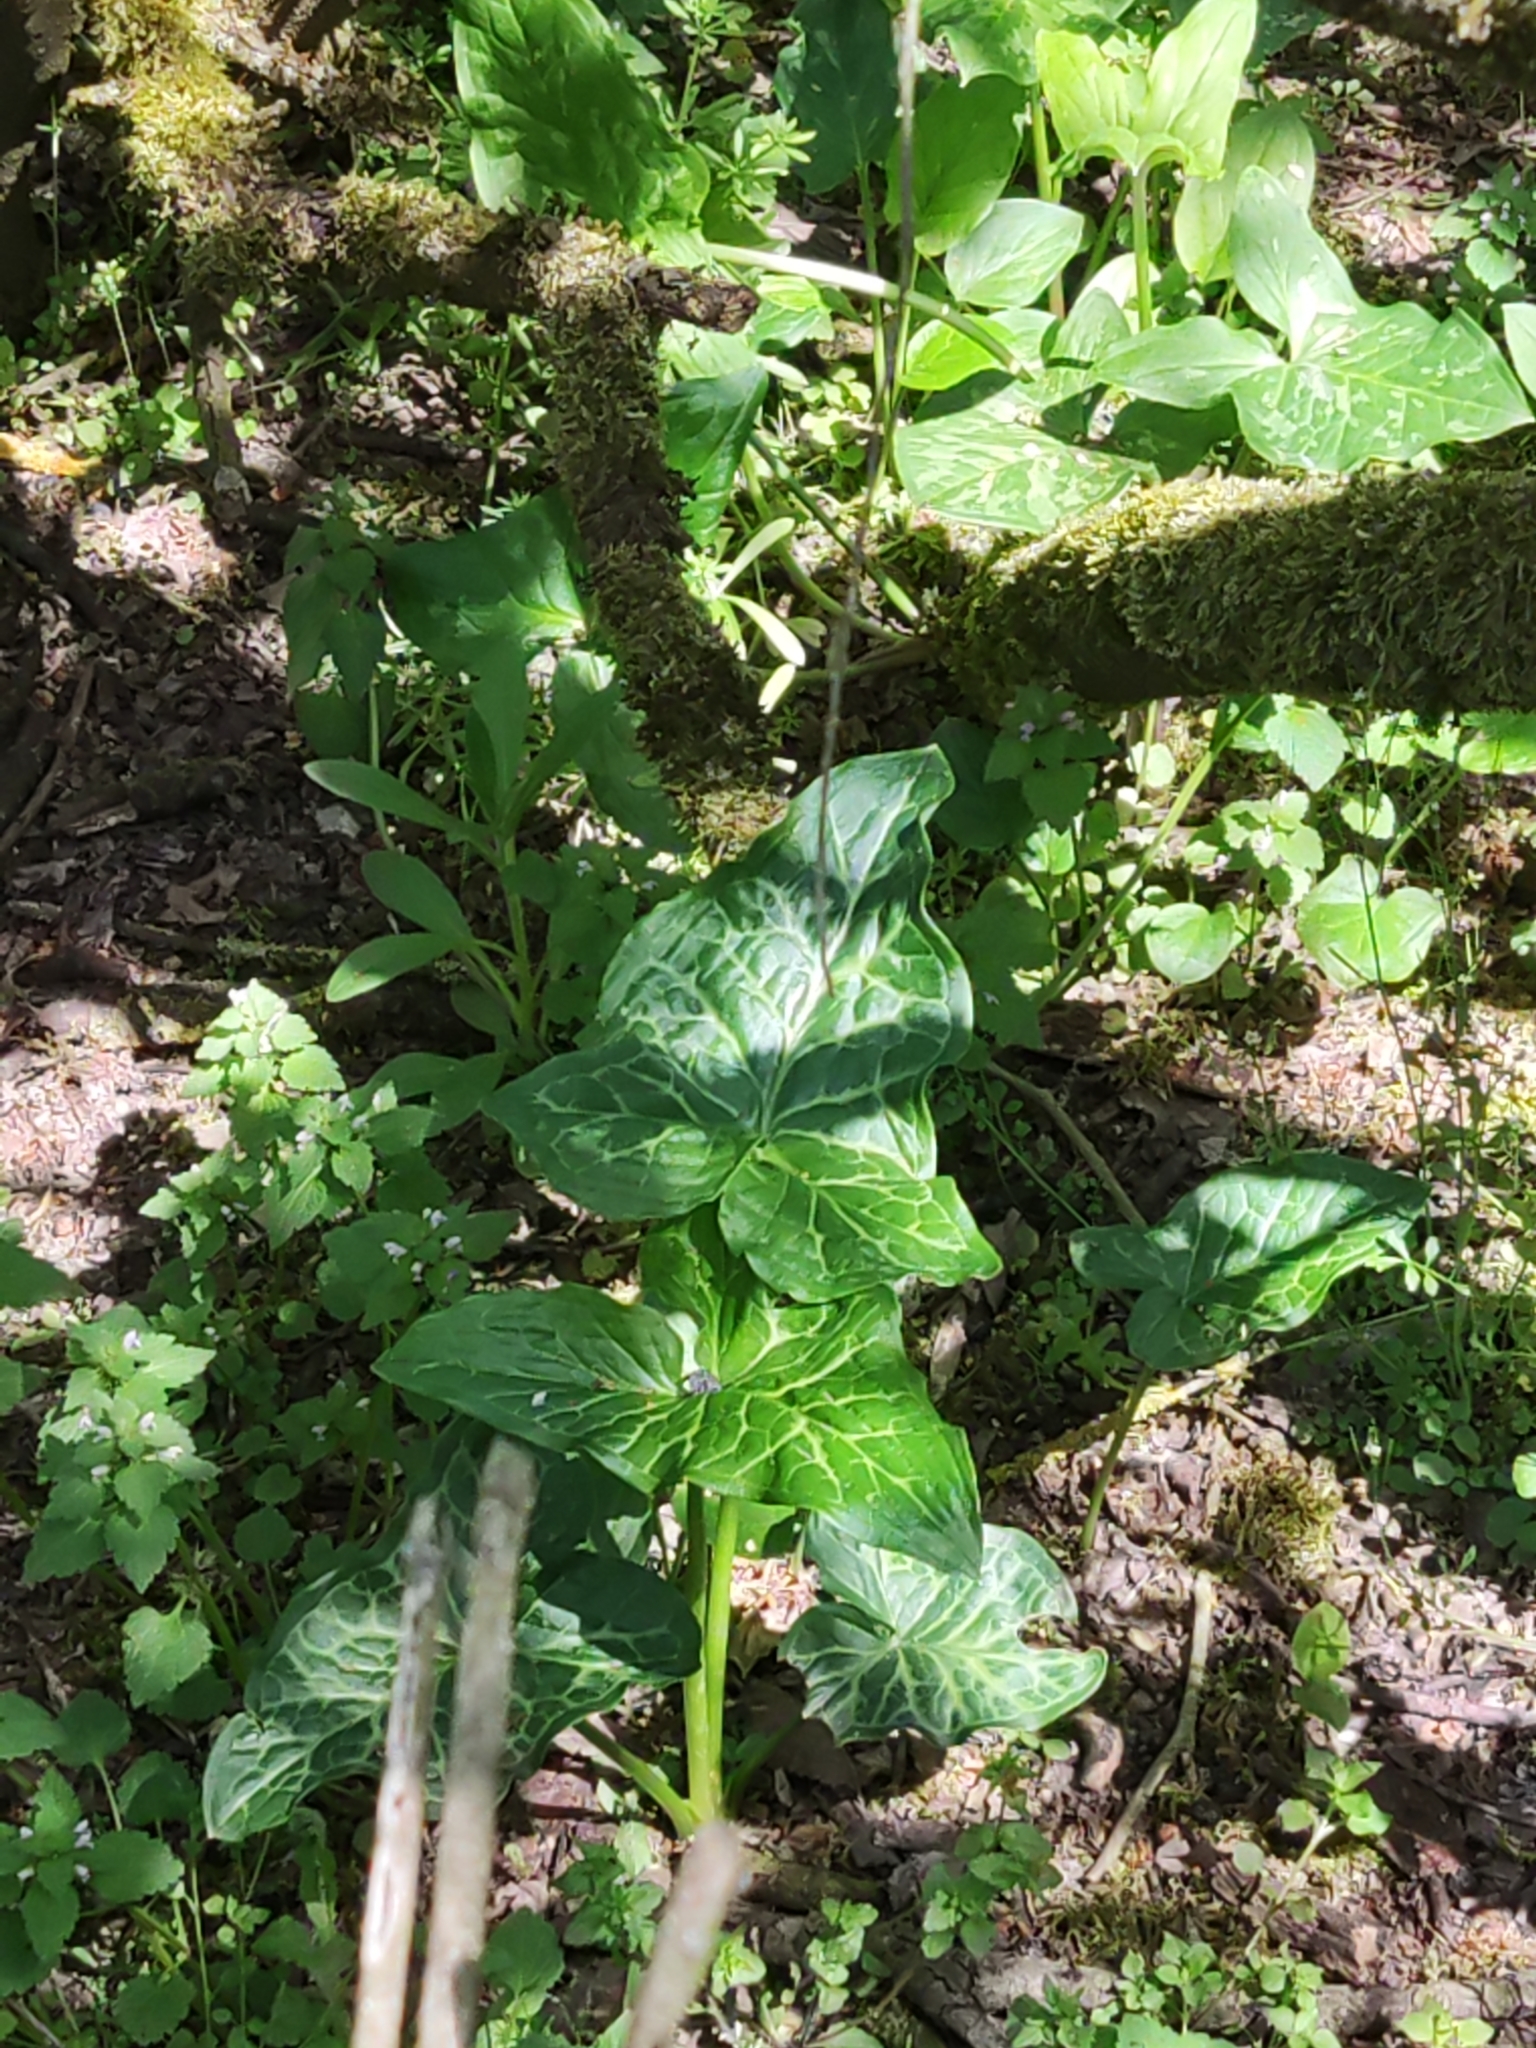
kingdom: Plantae
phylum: Tracheophyta
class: Liliopsida
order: Alismatales
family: Araceae
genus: Arum
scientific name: Arum italicum
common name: Italian lords-and-ladies
